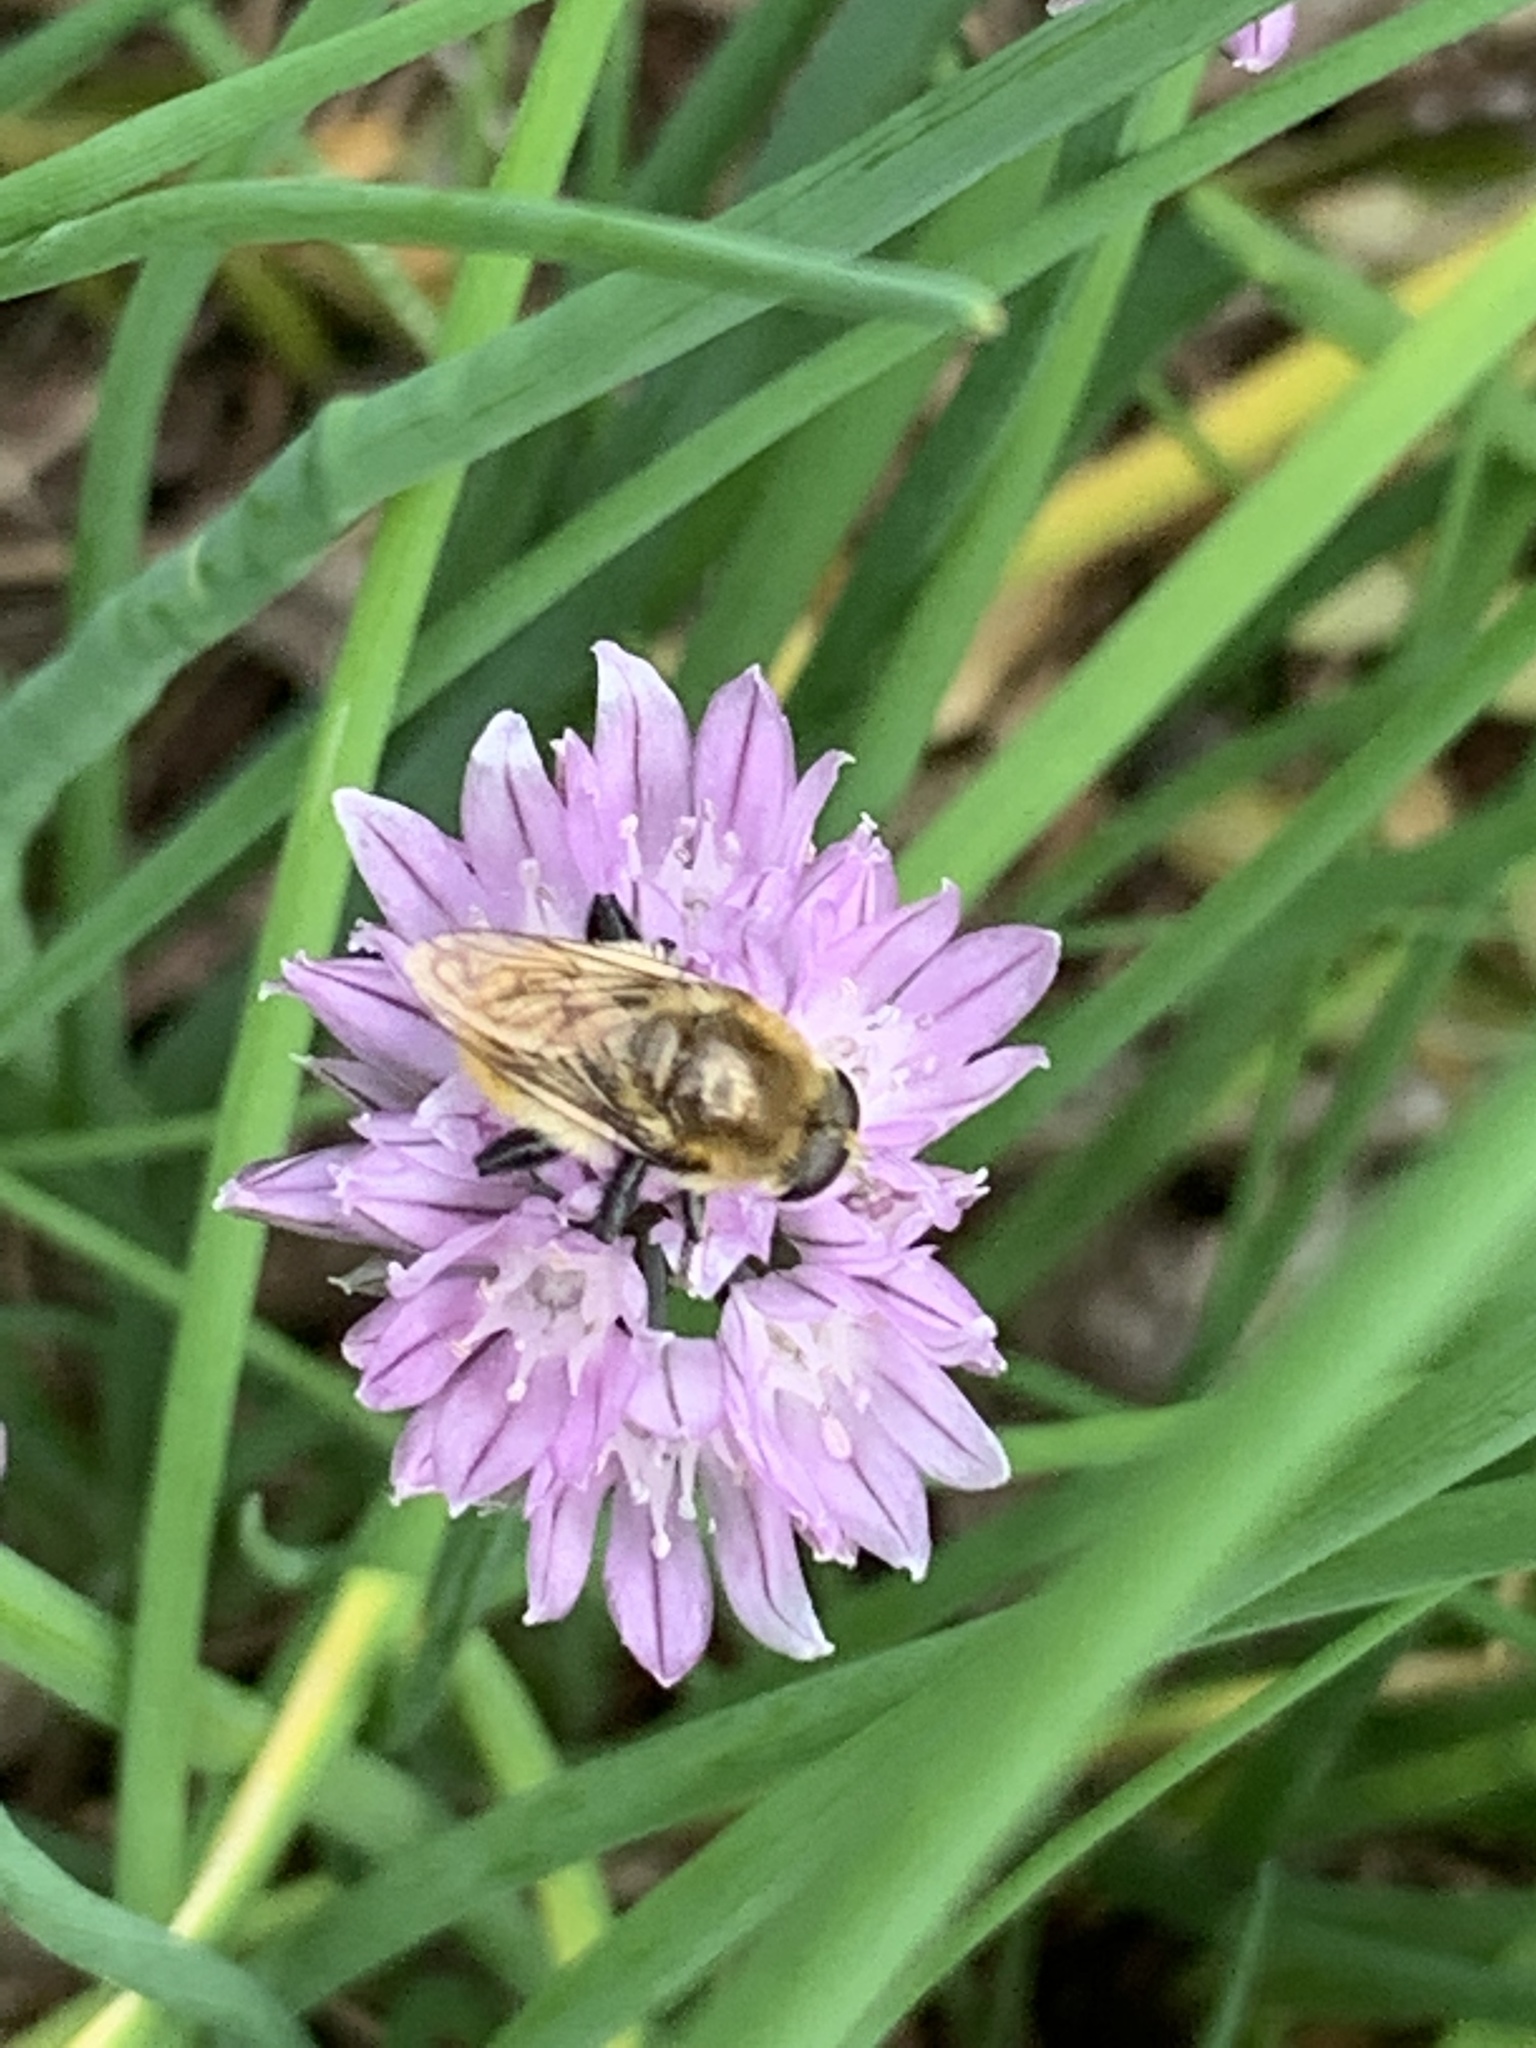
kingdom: Animalia
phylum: Arthropoda
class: Insecta
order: Diptera
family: Syrphidae
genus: Merodon
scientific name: Merodon equestris
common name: Greater bulb-fly
